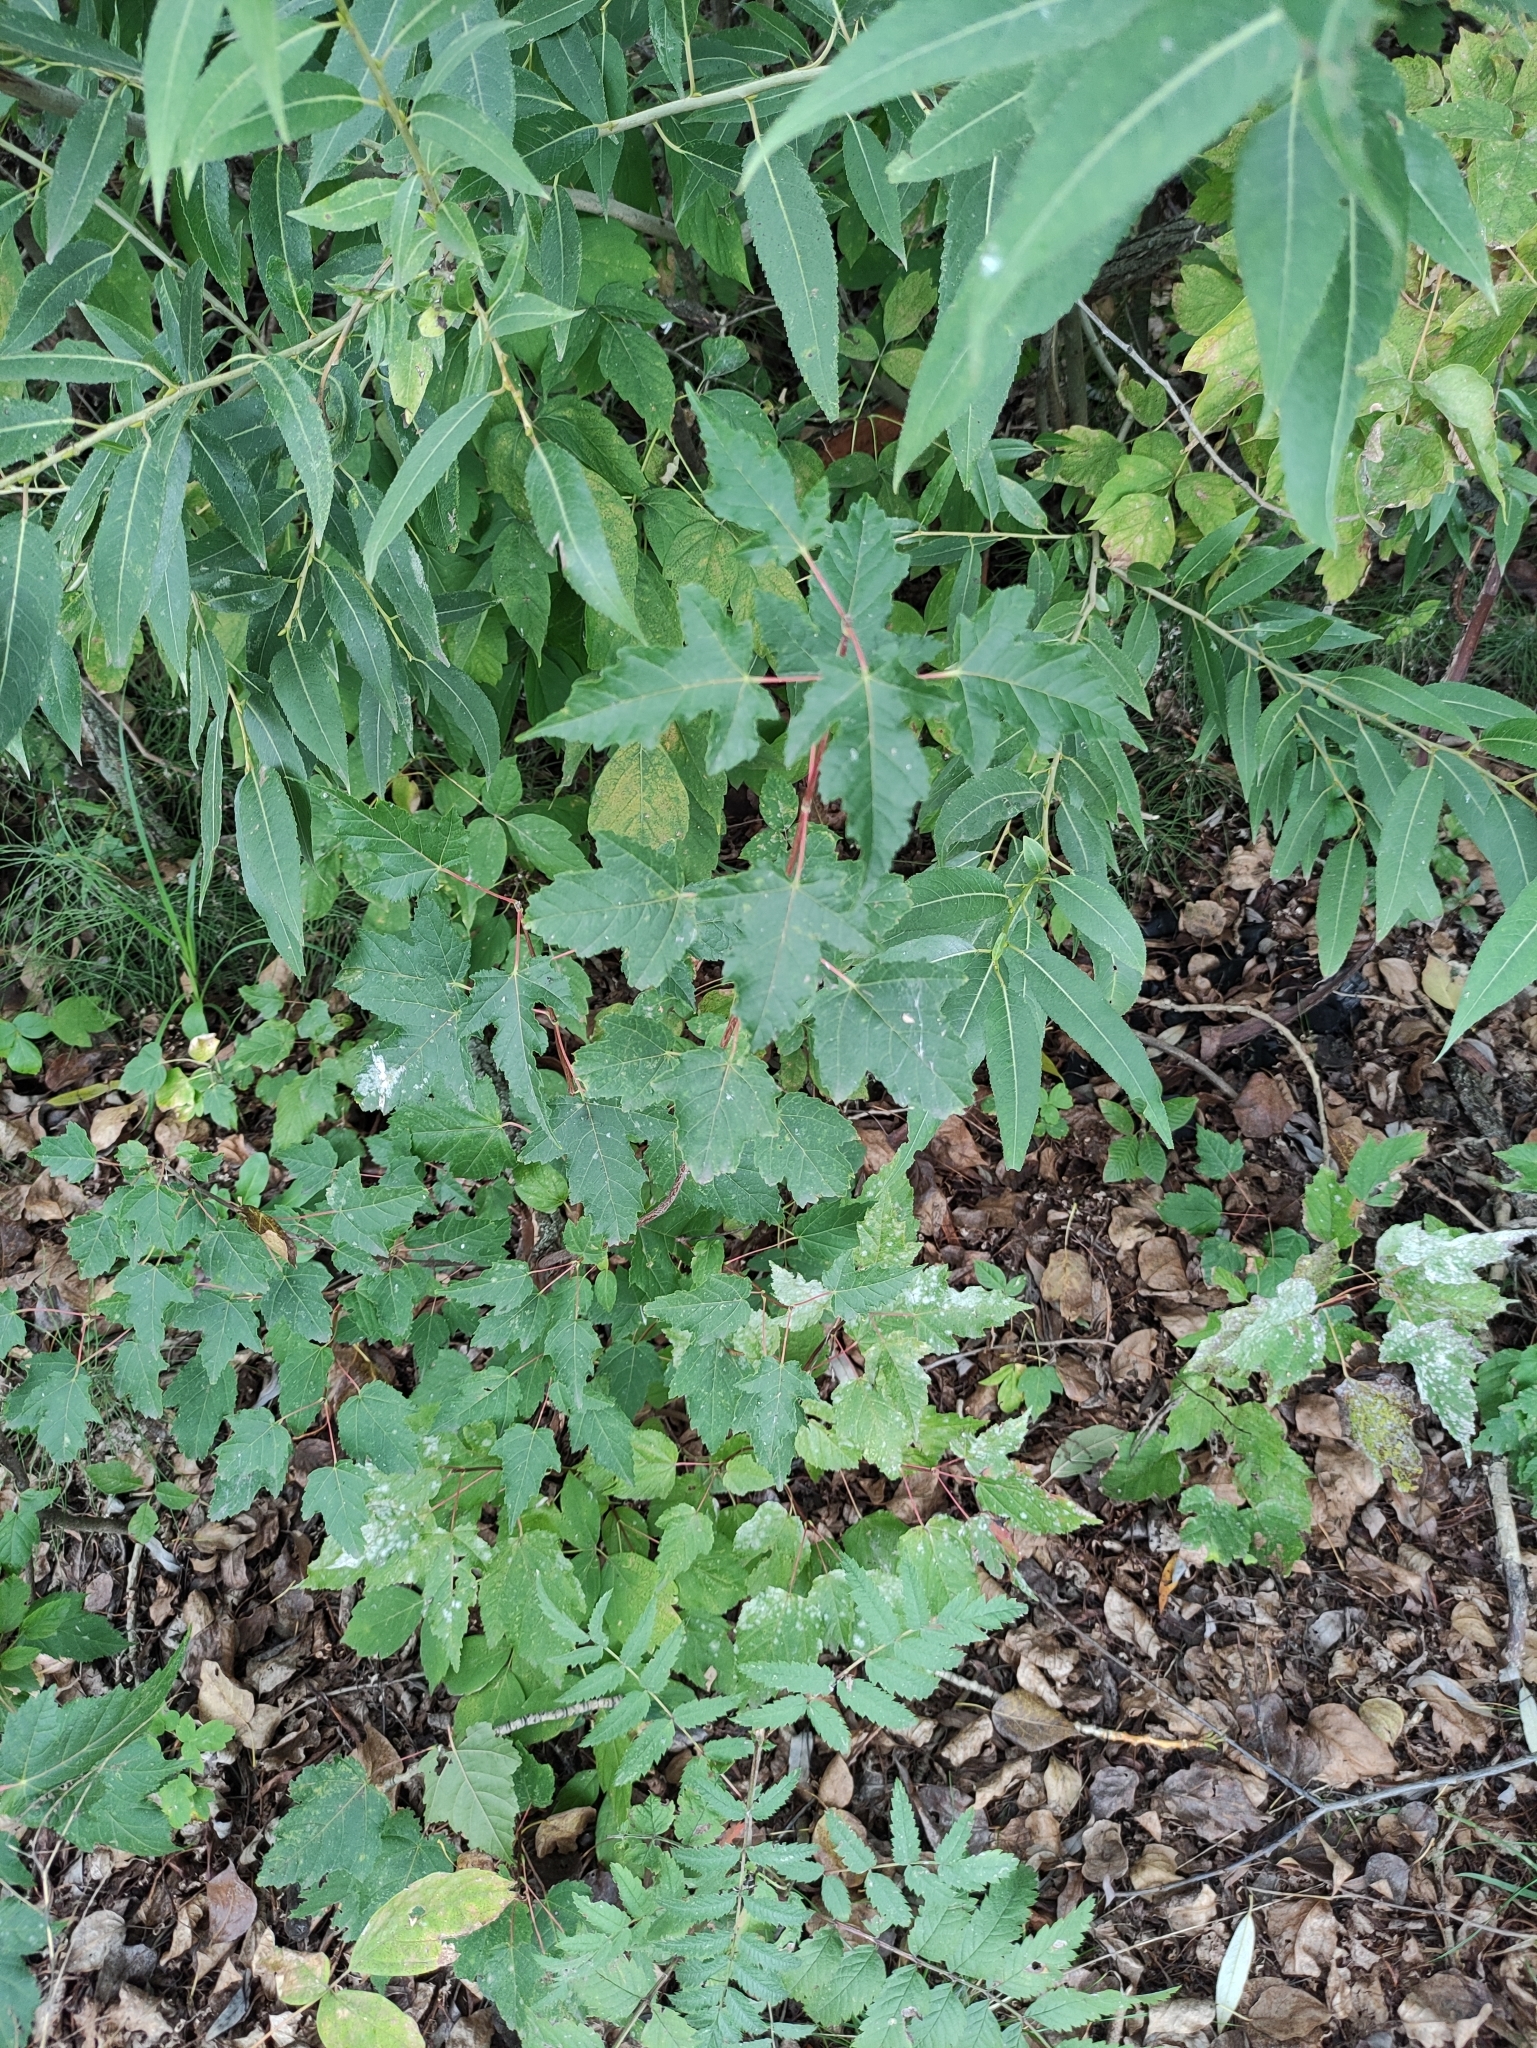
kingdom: Plantae
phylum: Tracheophyta
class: Magnoliopsida
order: Sapindales
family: Sapindaceae
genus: Acer
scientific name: Acer tataricum
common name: Tartar maple
